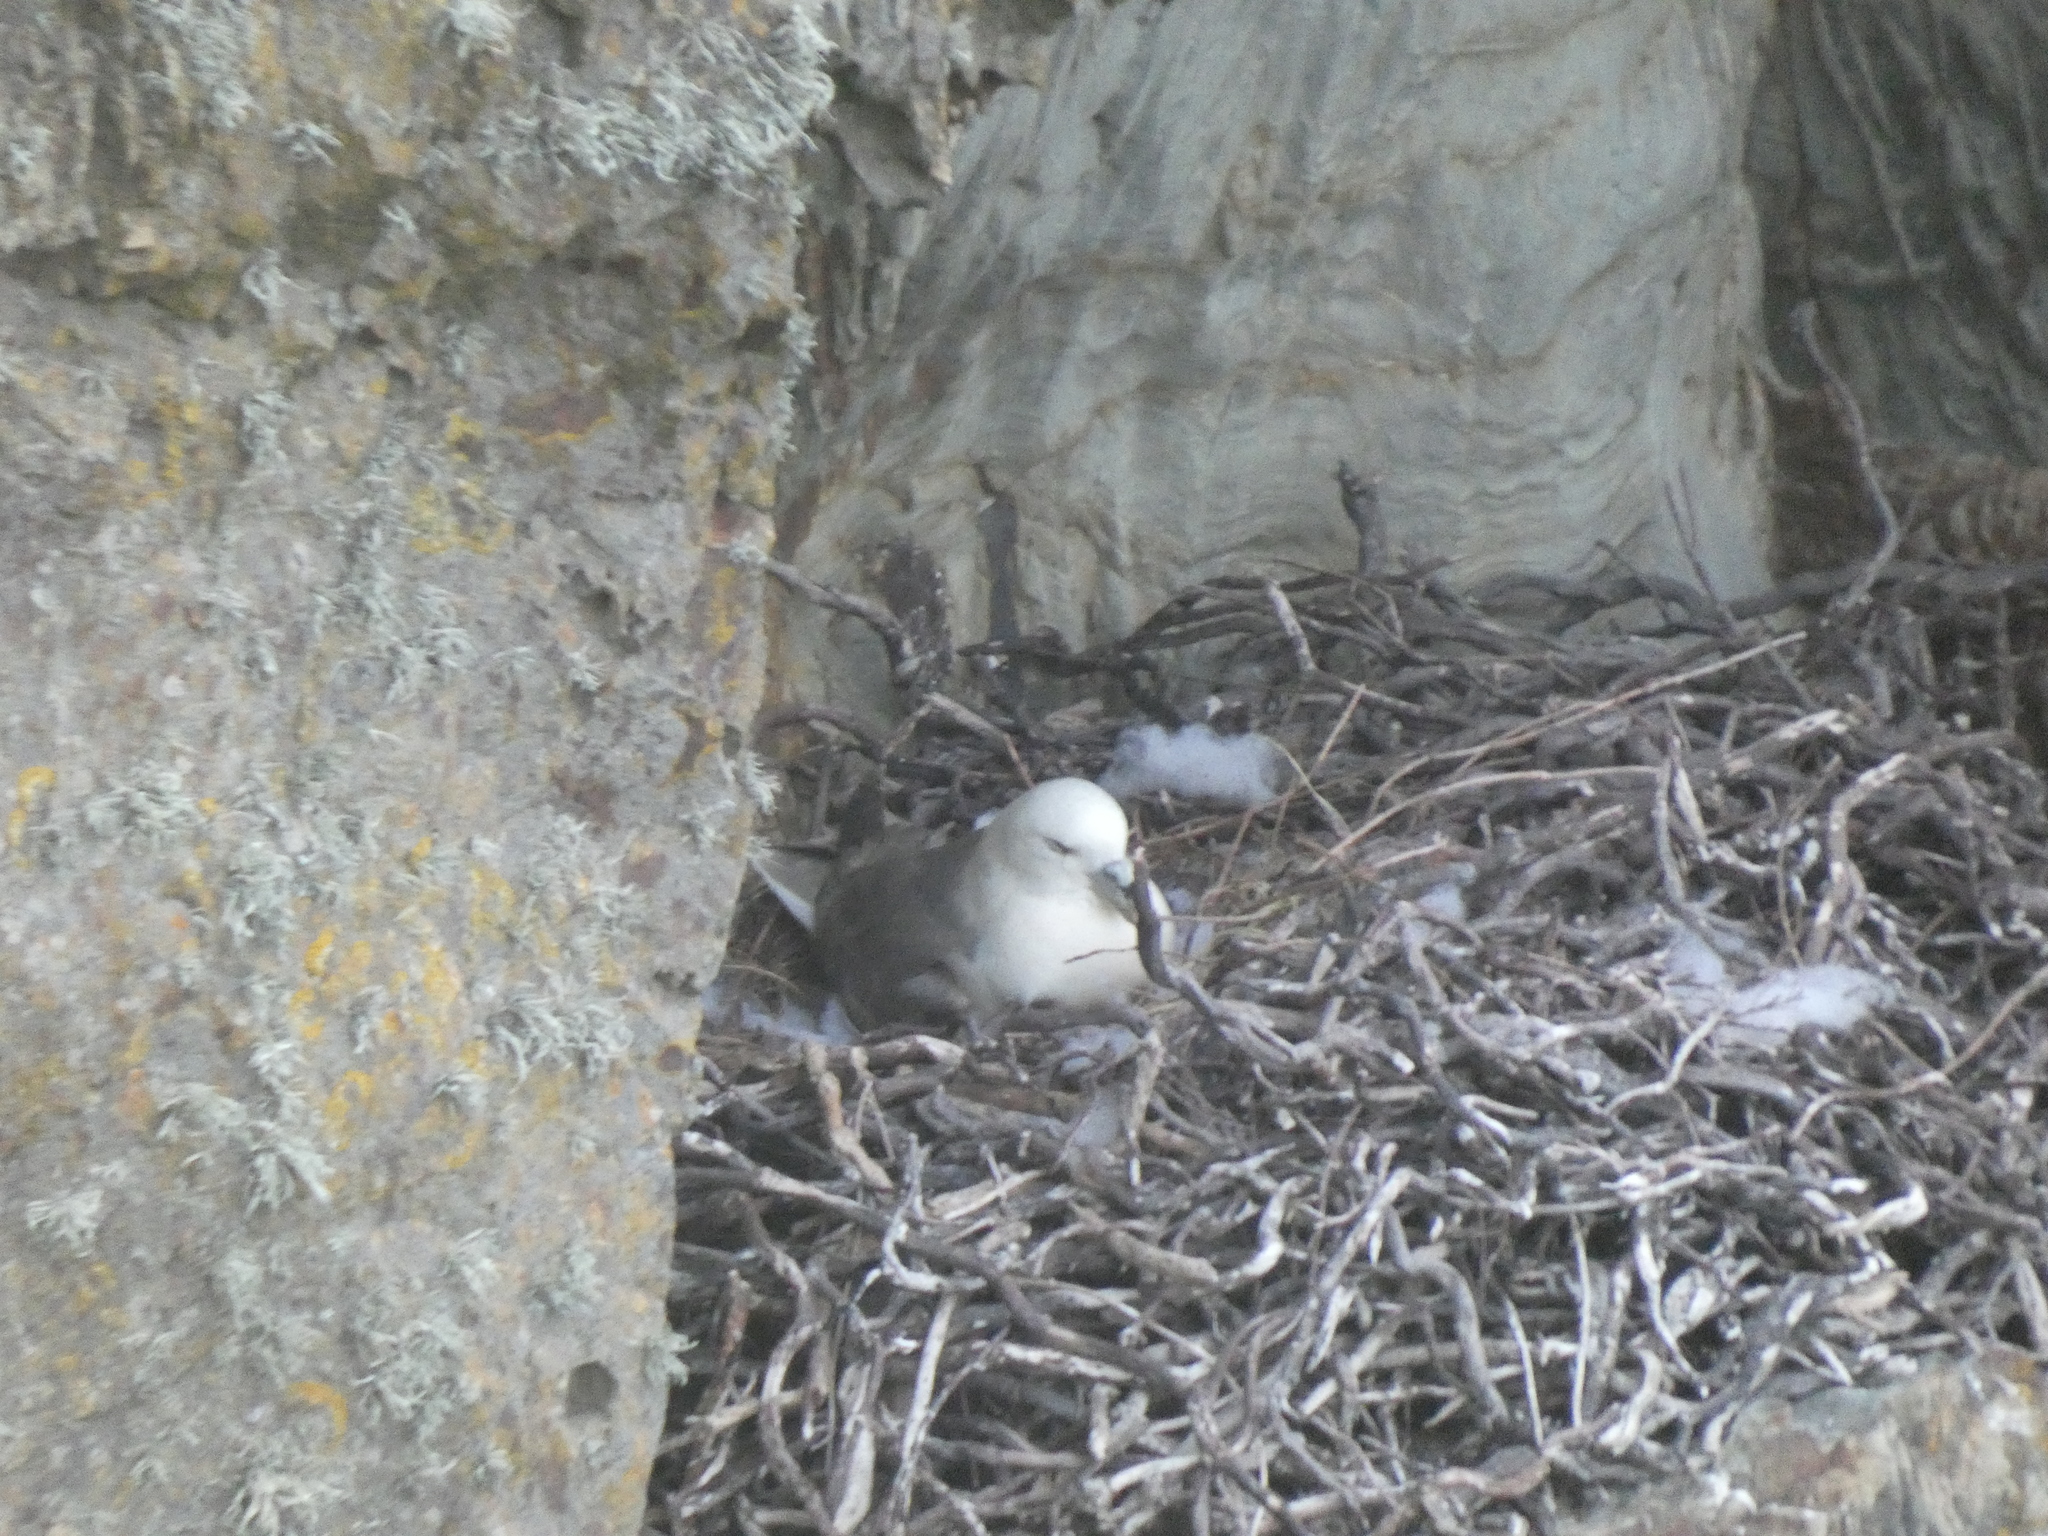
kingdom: Animalia
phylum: Chordata
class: Aves
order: Procellariiformes
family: Procellariidae
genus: Fulmarus
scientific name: Fulmarus glacialis
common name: Northern fulmar
